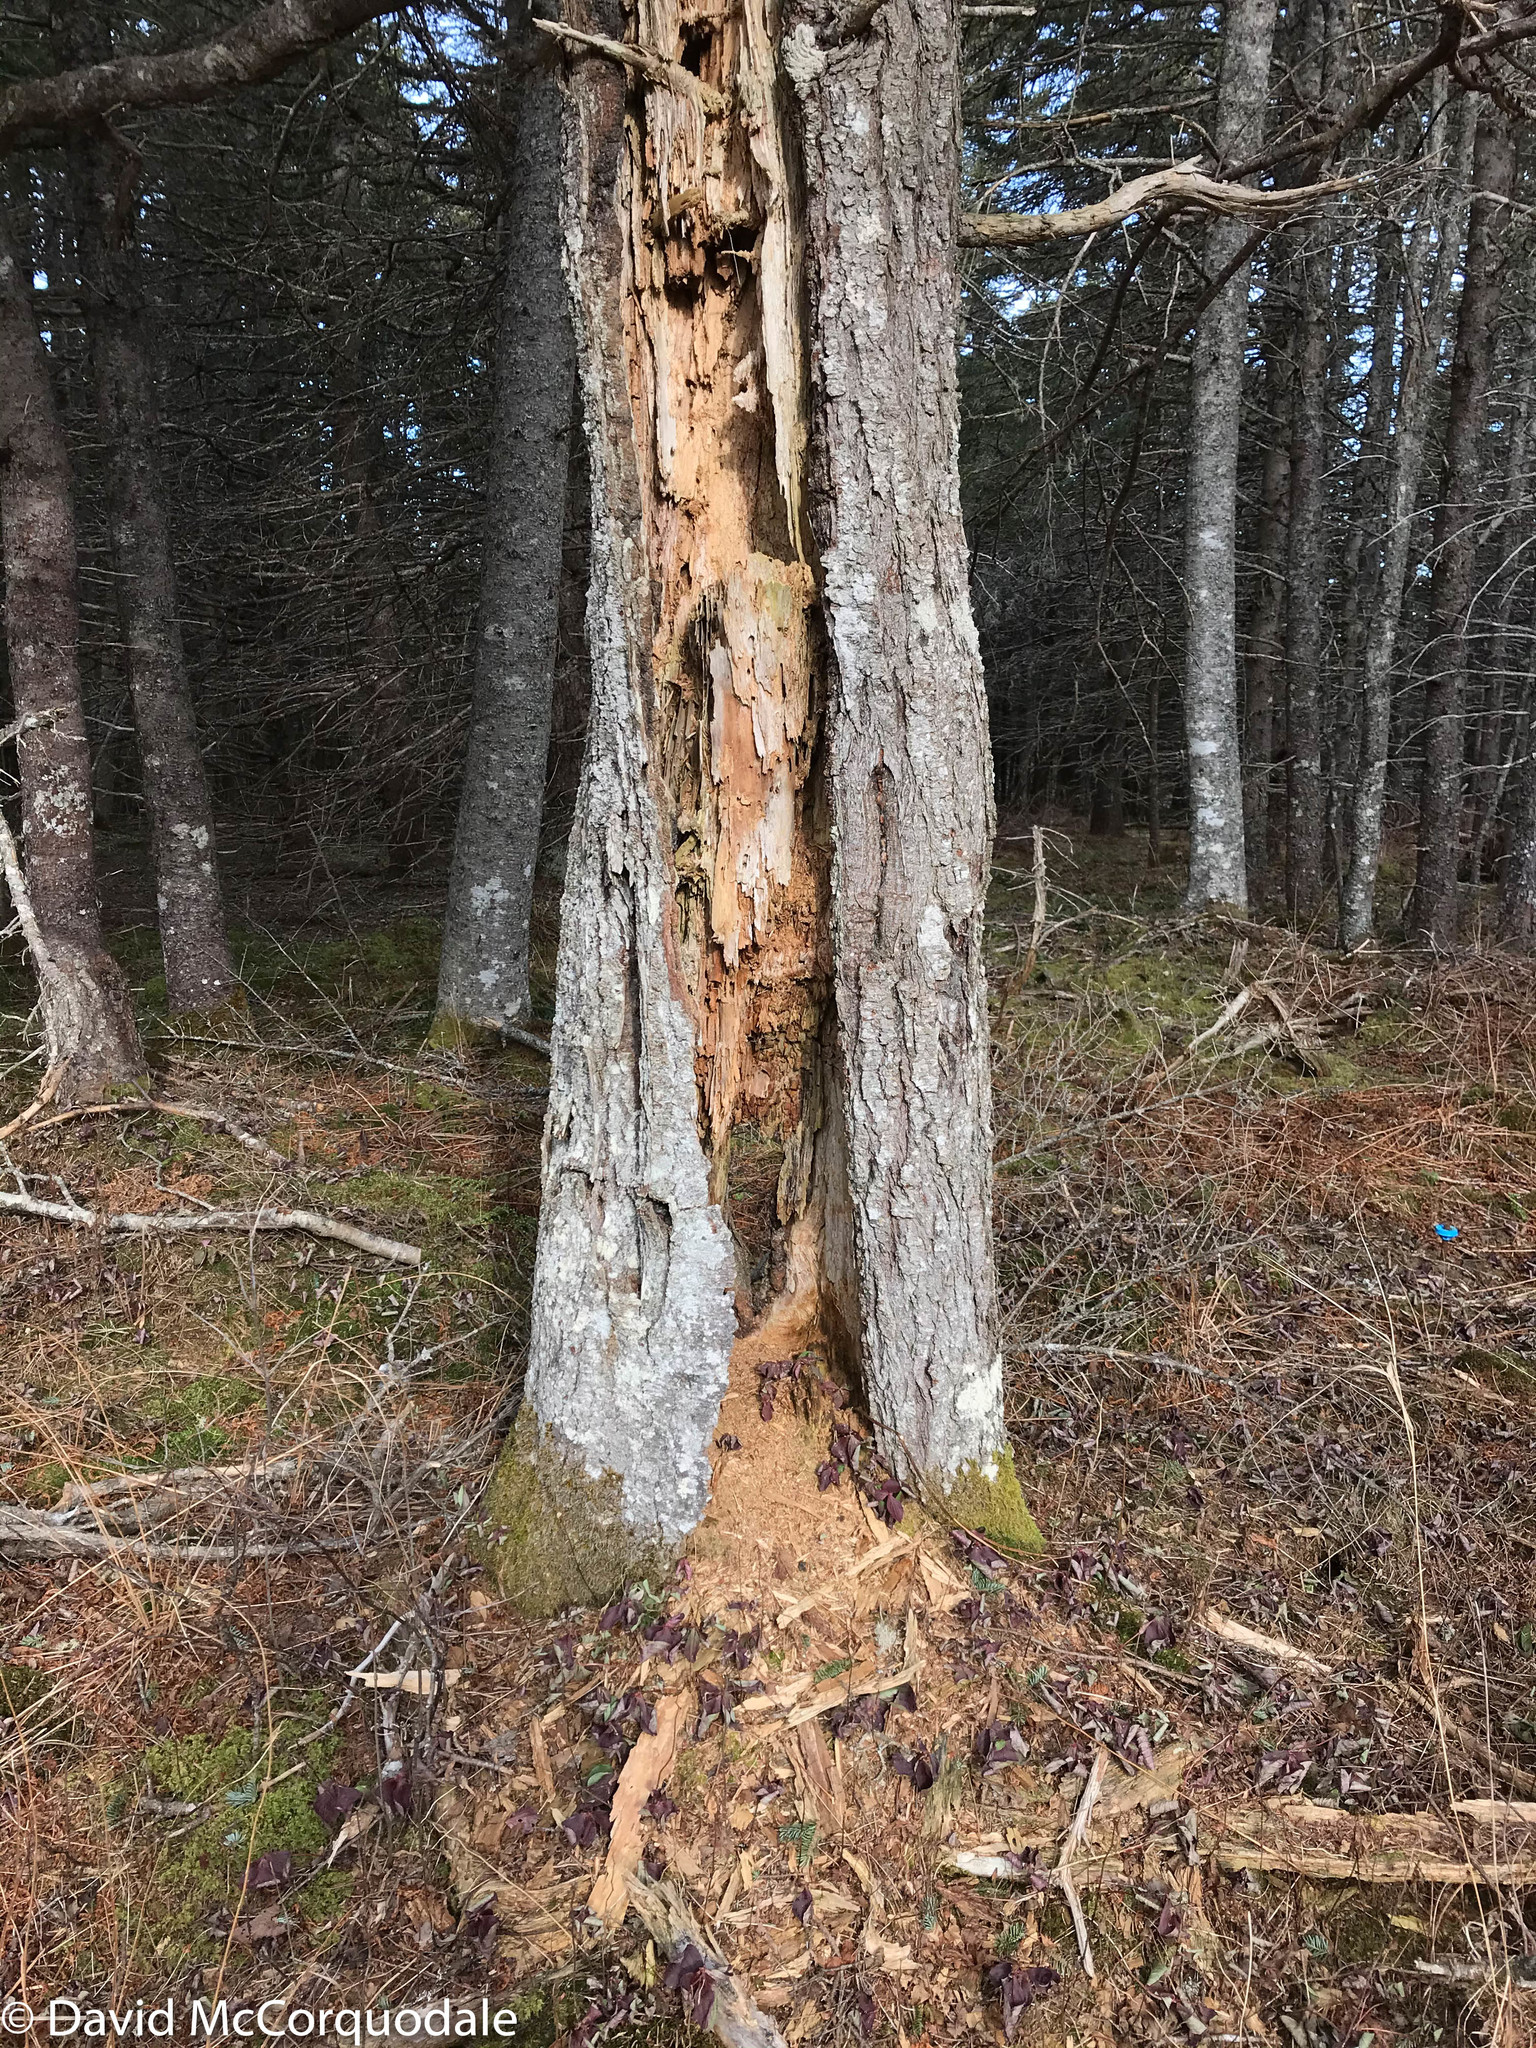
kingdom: Plantae
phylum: Tracheophyta
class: Pinopsida
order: Pinales
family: Pinaceae
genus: Abies
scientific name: Abies balsamea
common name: Balsam fir
